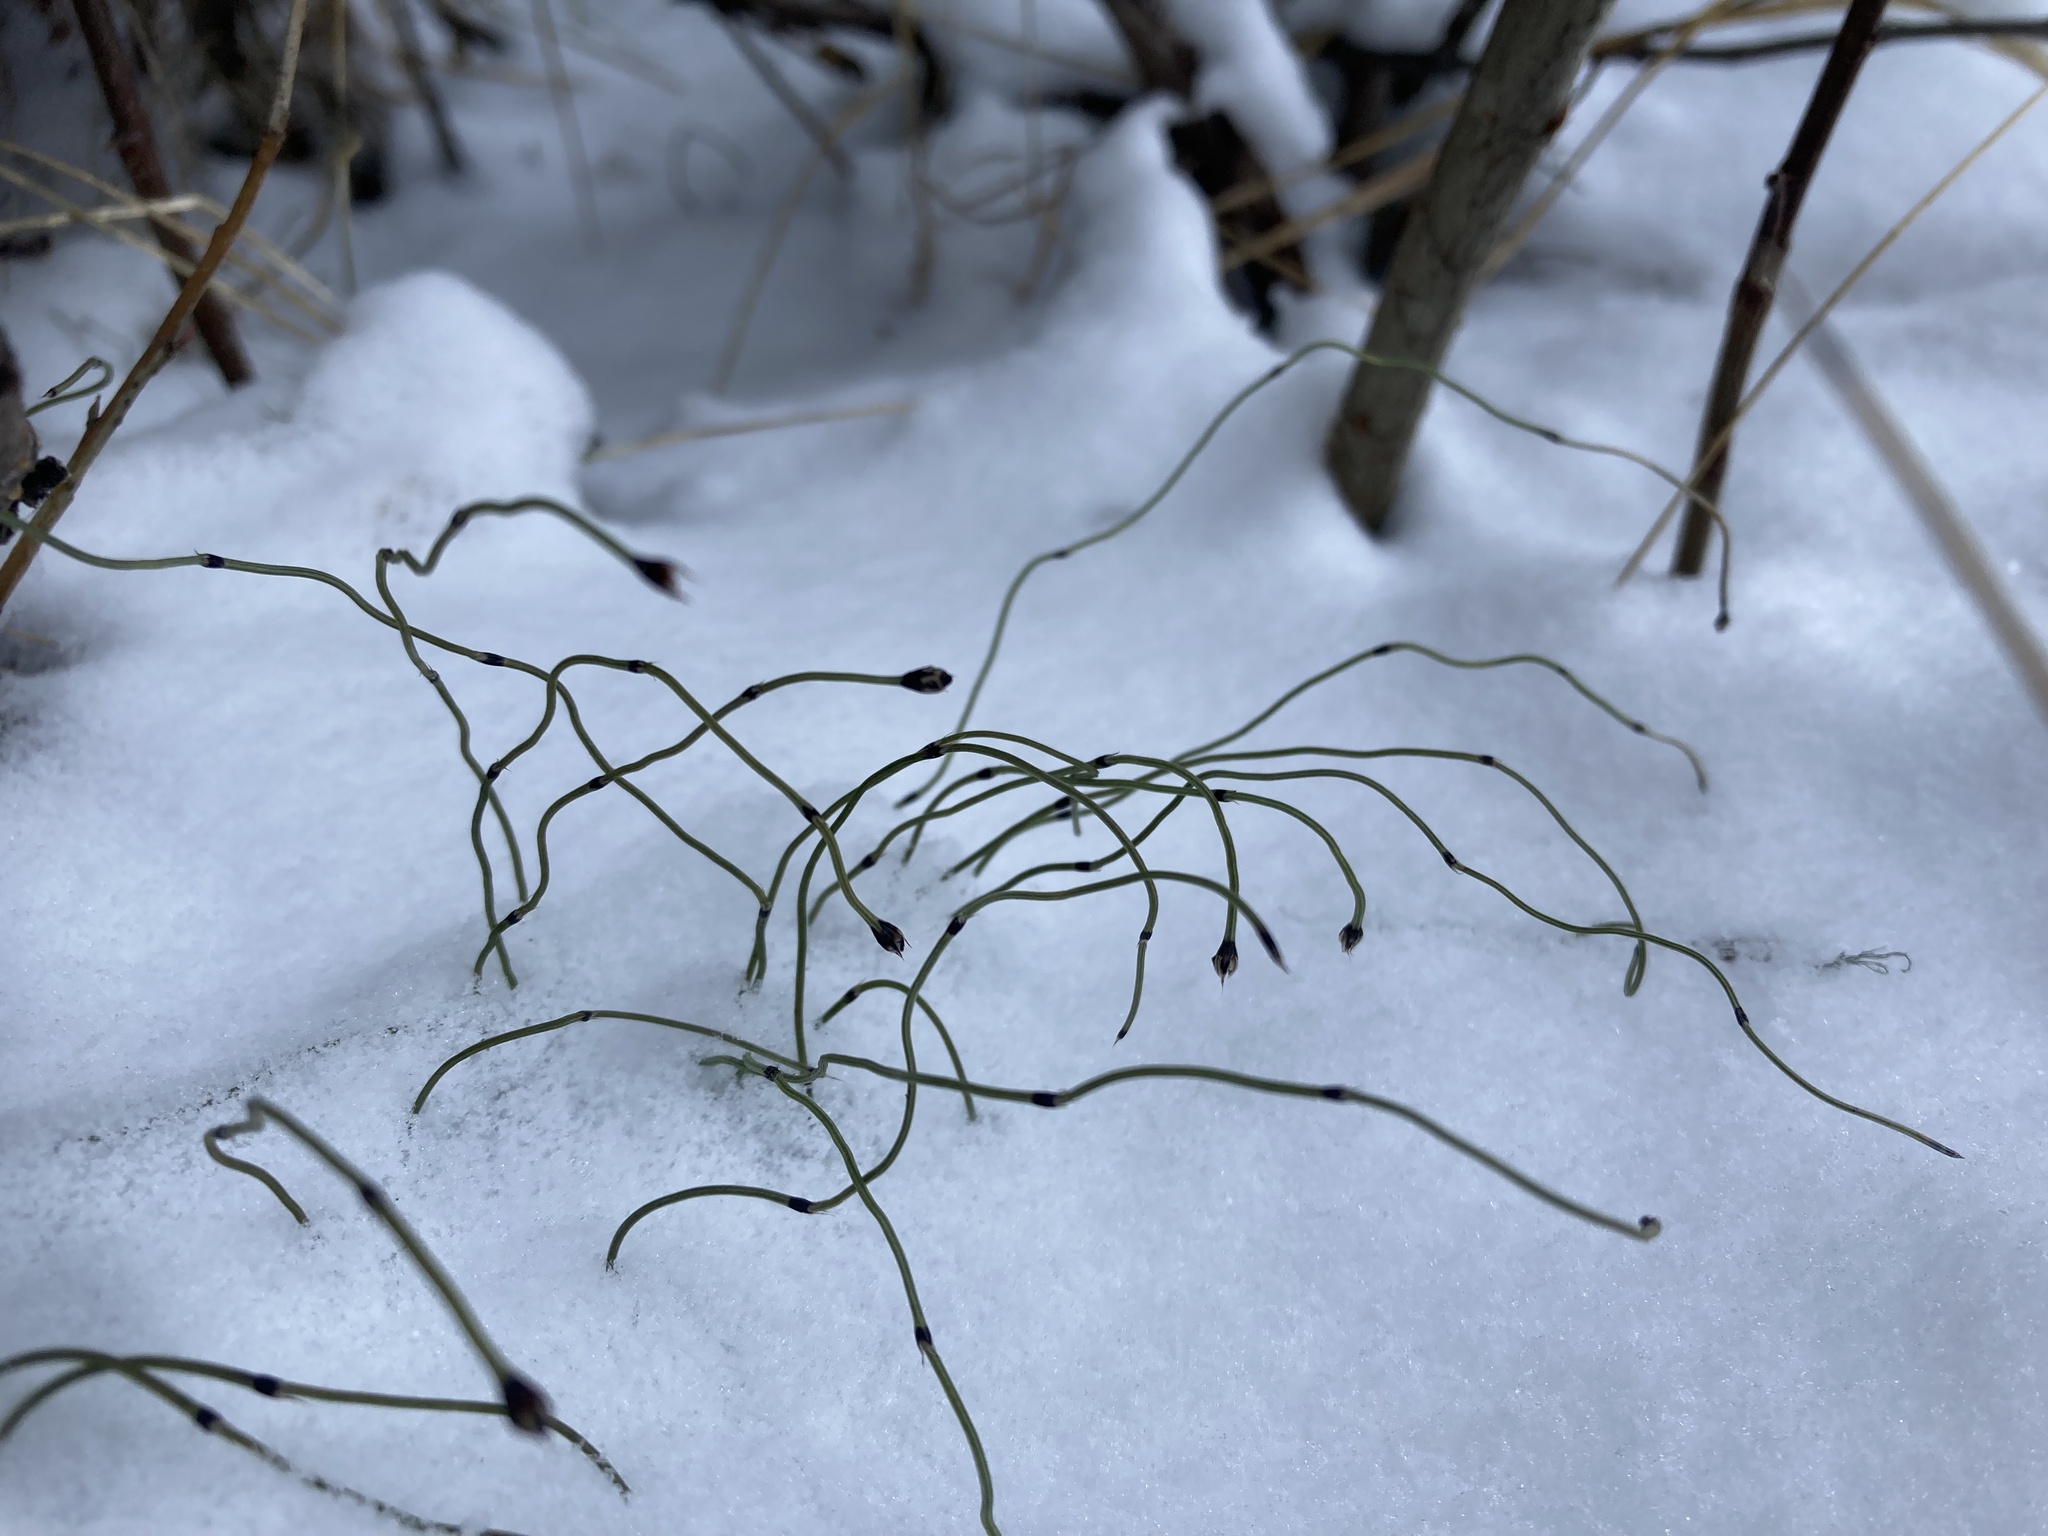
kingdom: Plantae
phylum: Tracheophyta
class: Polypodiopsida
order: Equisetales
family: Equisetaceae
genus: Equisetum
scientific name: Equisetum scirpoides
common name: Delicate horsetail
